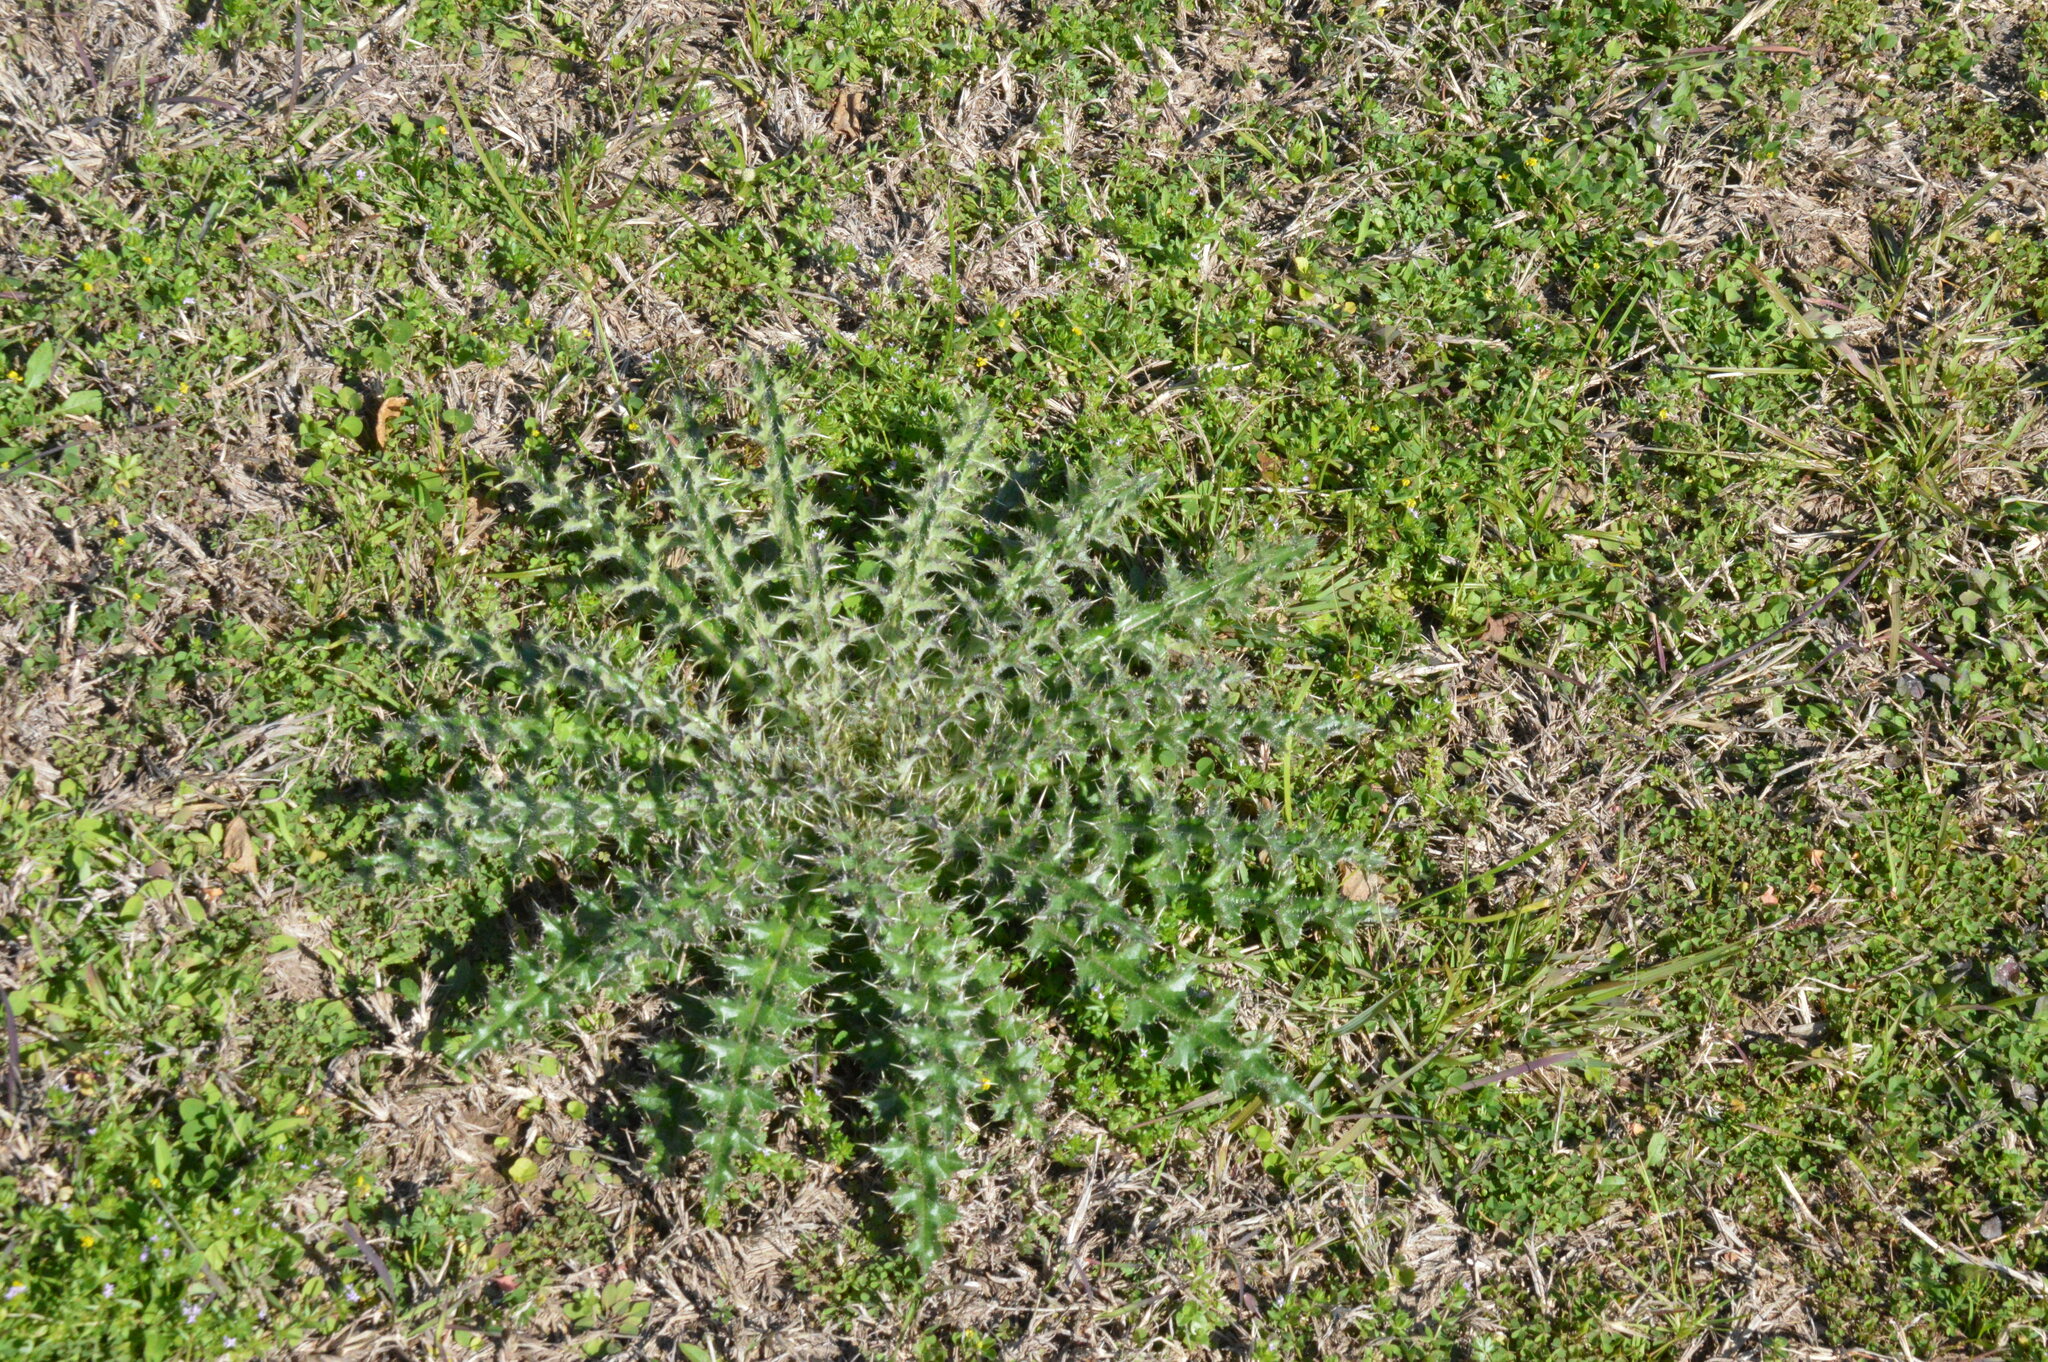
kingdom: Plantae
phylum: Tracheophyta
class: Magnoliopsida
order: Asterales
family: Asteraceae
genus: Cirsium
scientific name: Cirsium horridulum
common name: Bristly thistle
